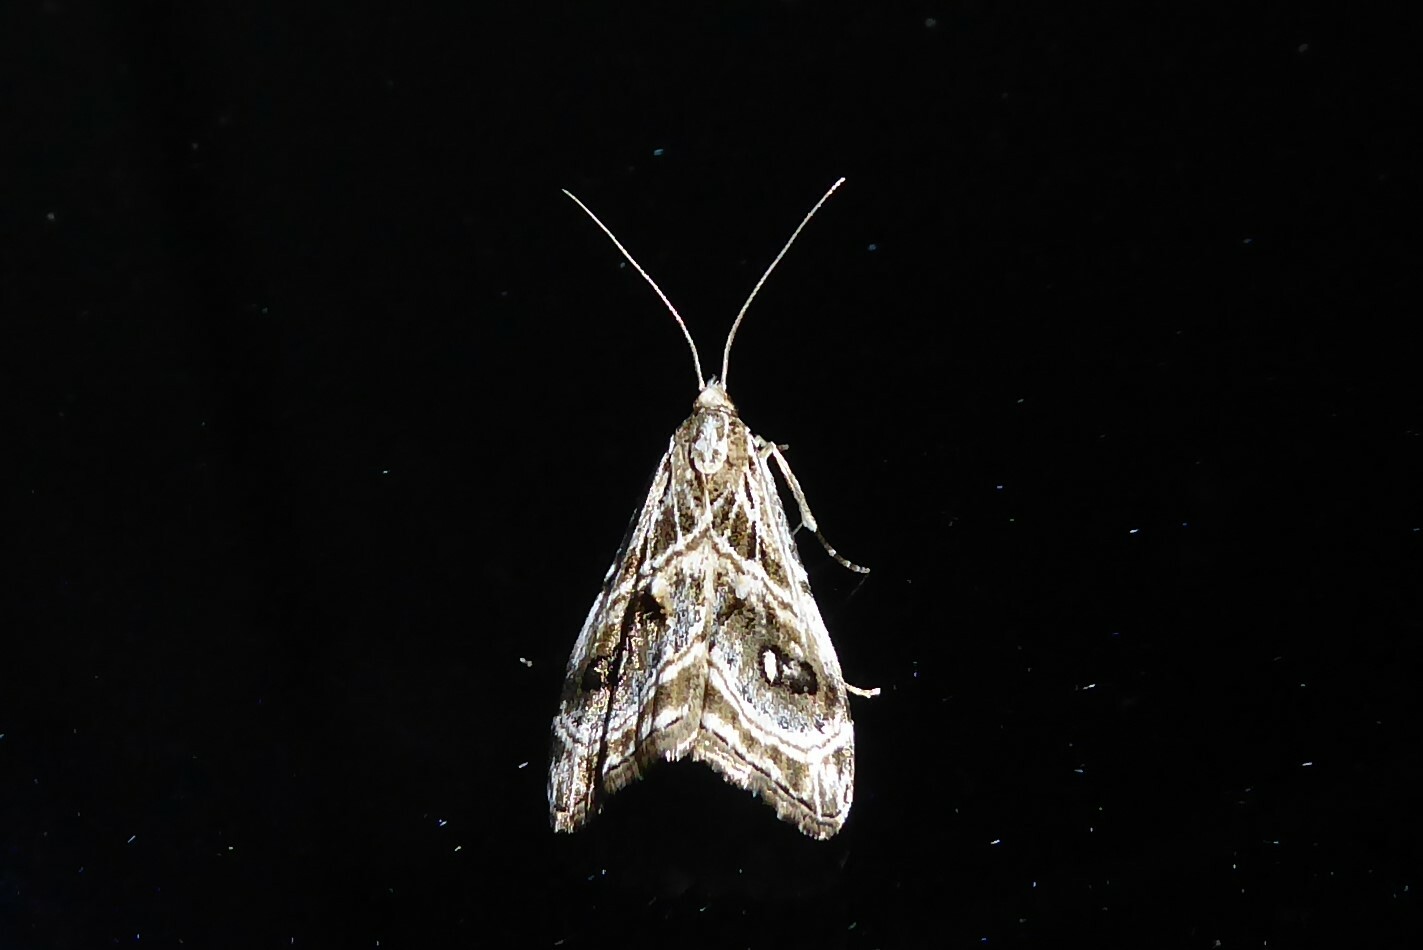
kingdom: Animalia
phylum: Arthropoda
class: Insecta
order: Lepidoptera
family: Crambidae
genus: Gadira
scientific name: Gadira acerella
